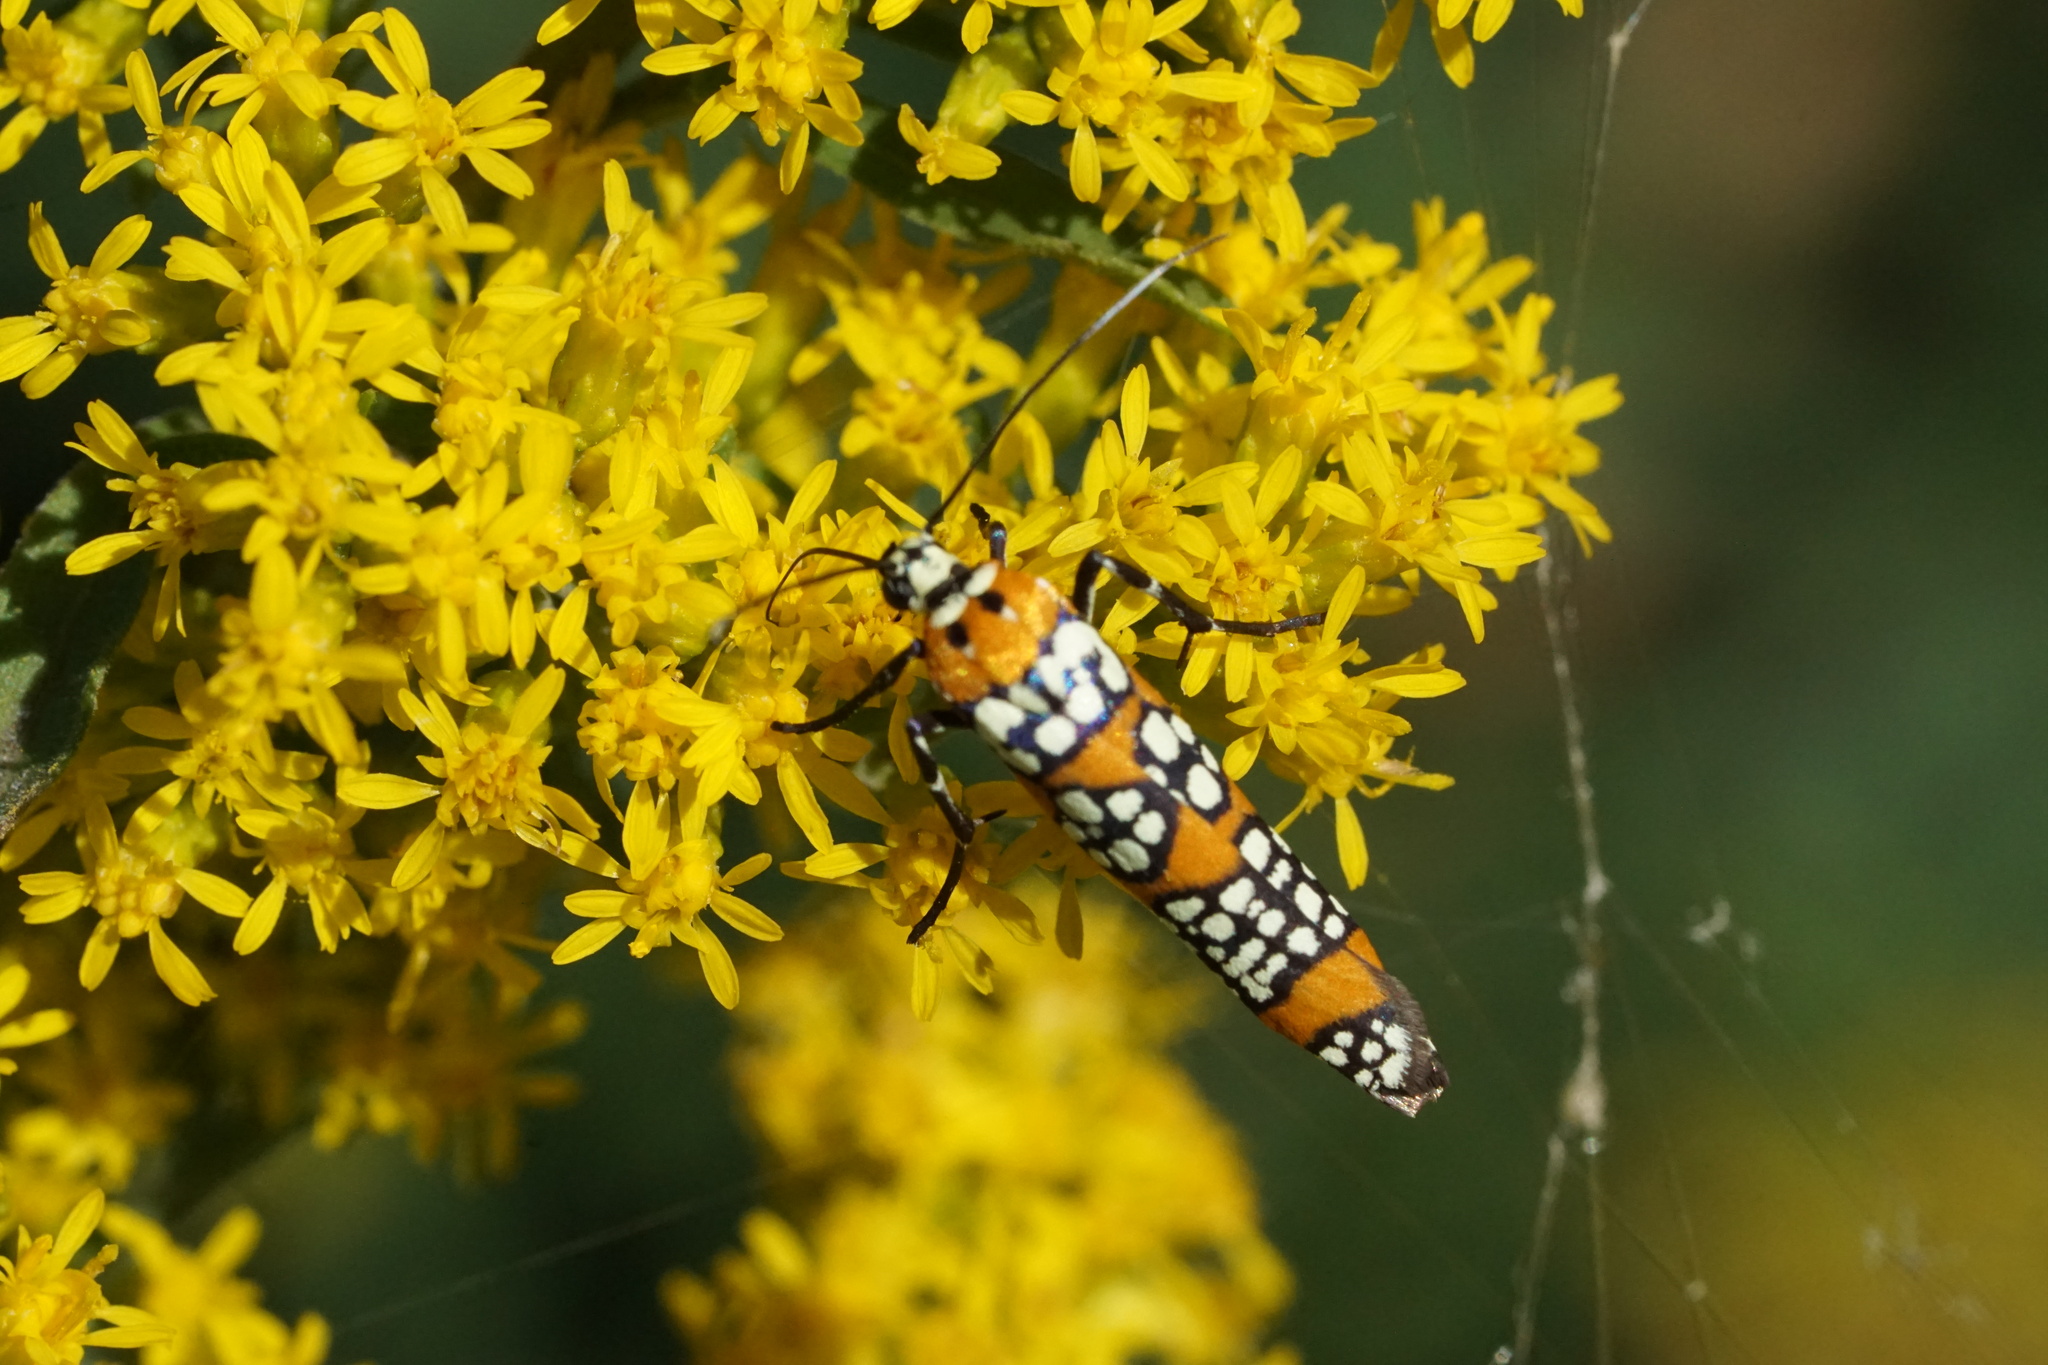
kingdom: Animalia
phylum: Arthropoda
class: Insecta
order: Lepidoptera
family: Attevidae
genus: Atteva
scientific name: Atteva punctella
